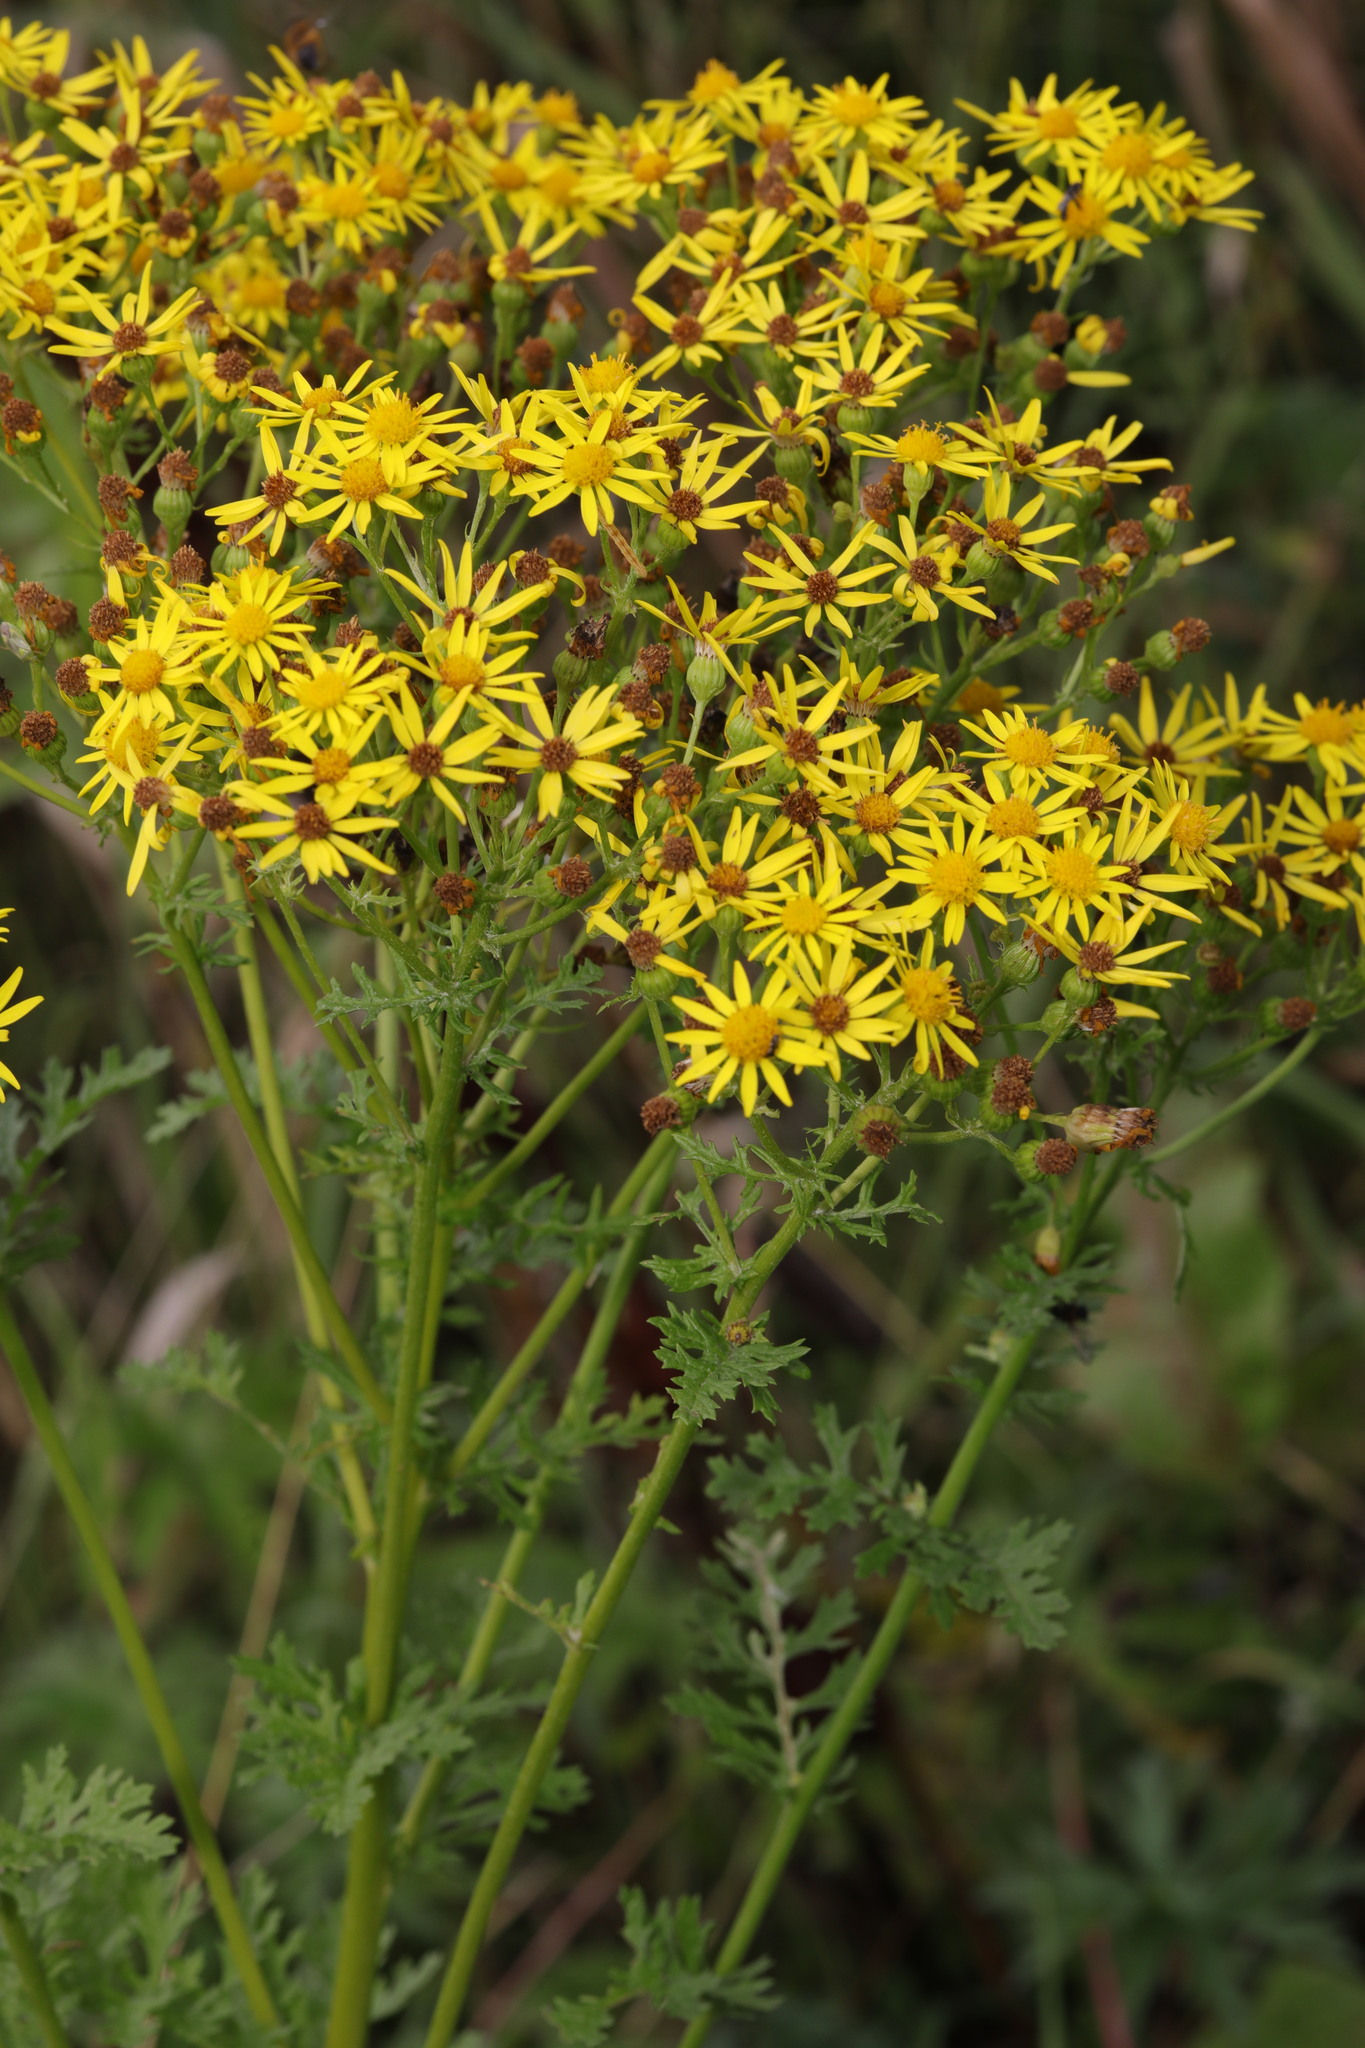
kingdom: Plantae
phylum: Tracheophyta
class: Magnoliopsida
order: Asterales
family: Asteraceae
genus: Jacobaea
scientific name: Jacobaea vulgaris
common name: Stinking willie
